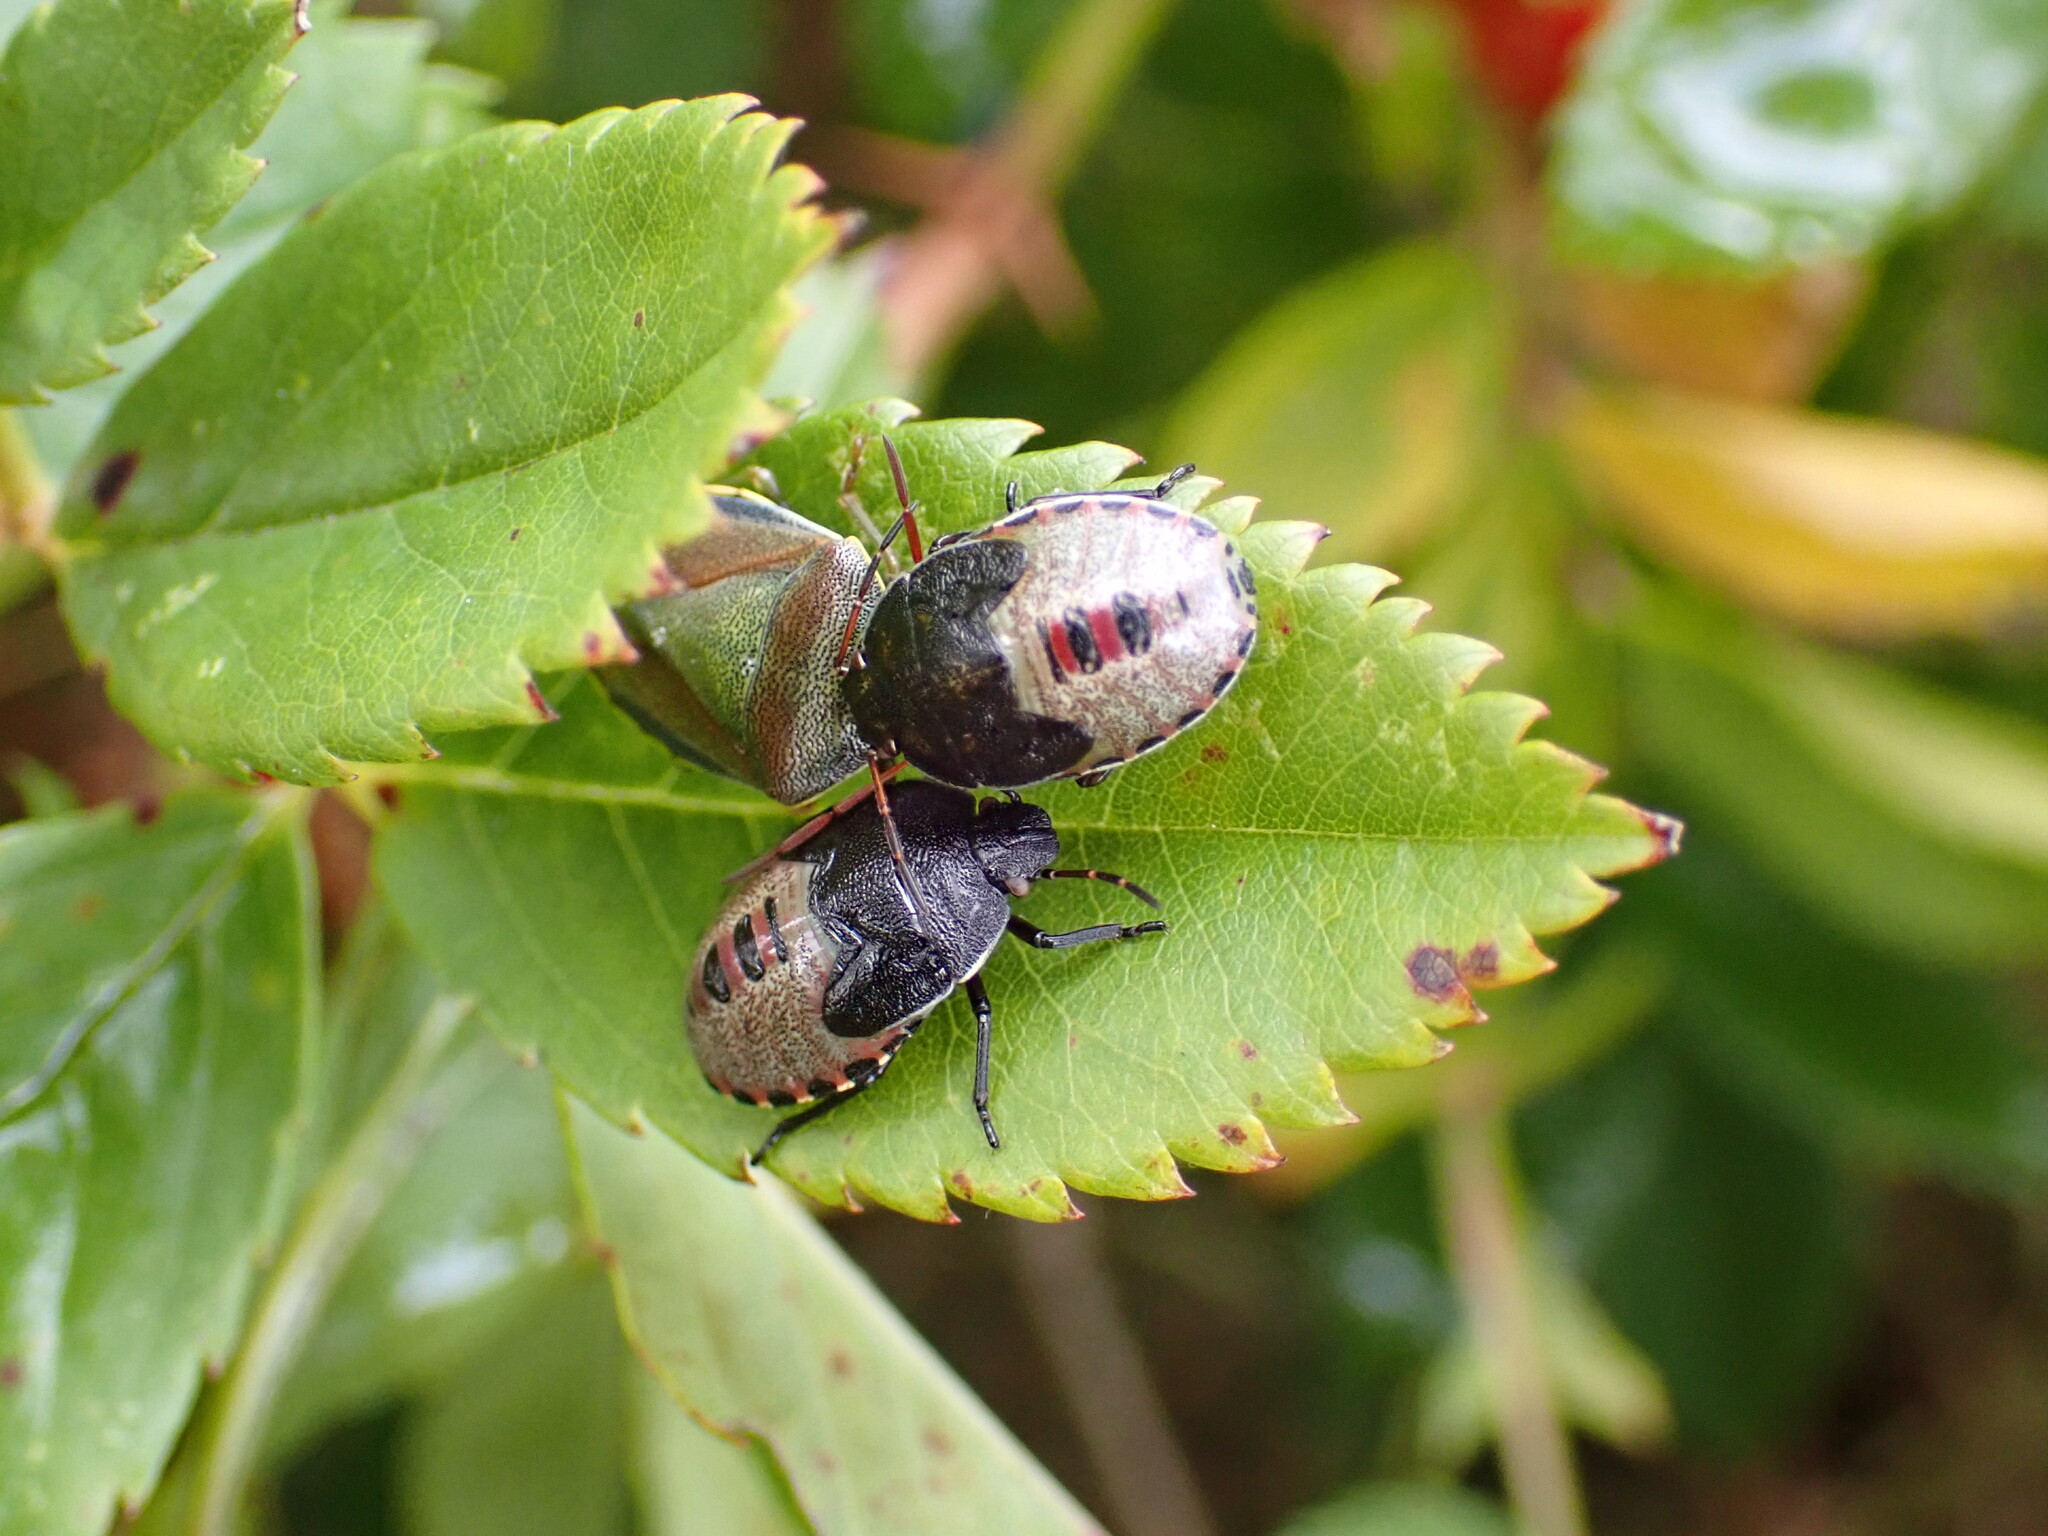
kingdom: Animalia
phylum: Arthropoda
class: Insecta
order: Hemiptera
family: Pentatomidae
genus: Piezodorus
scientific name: Piezodorus lituratus
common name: Stink bug
